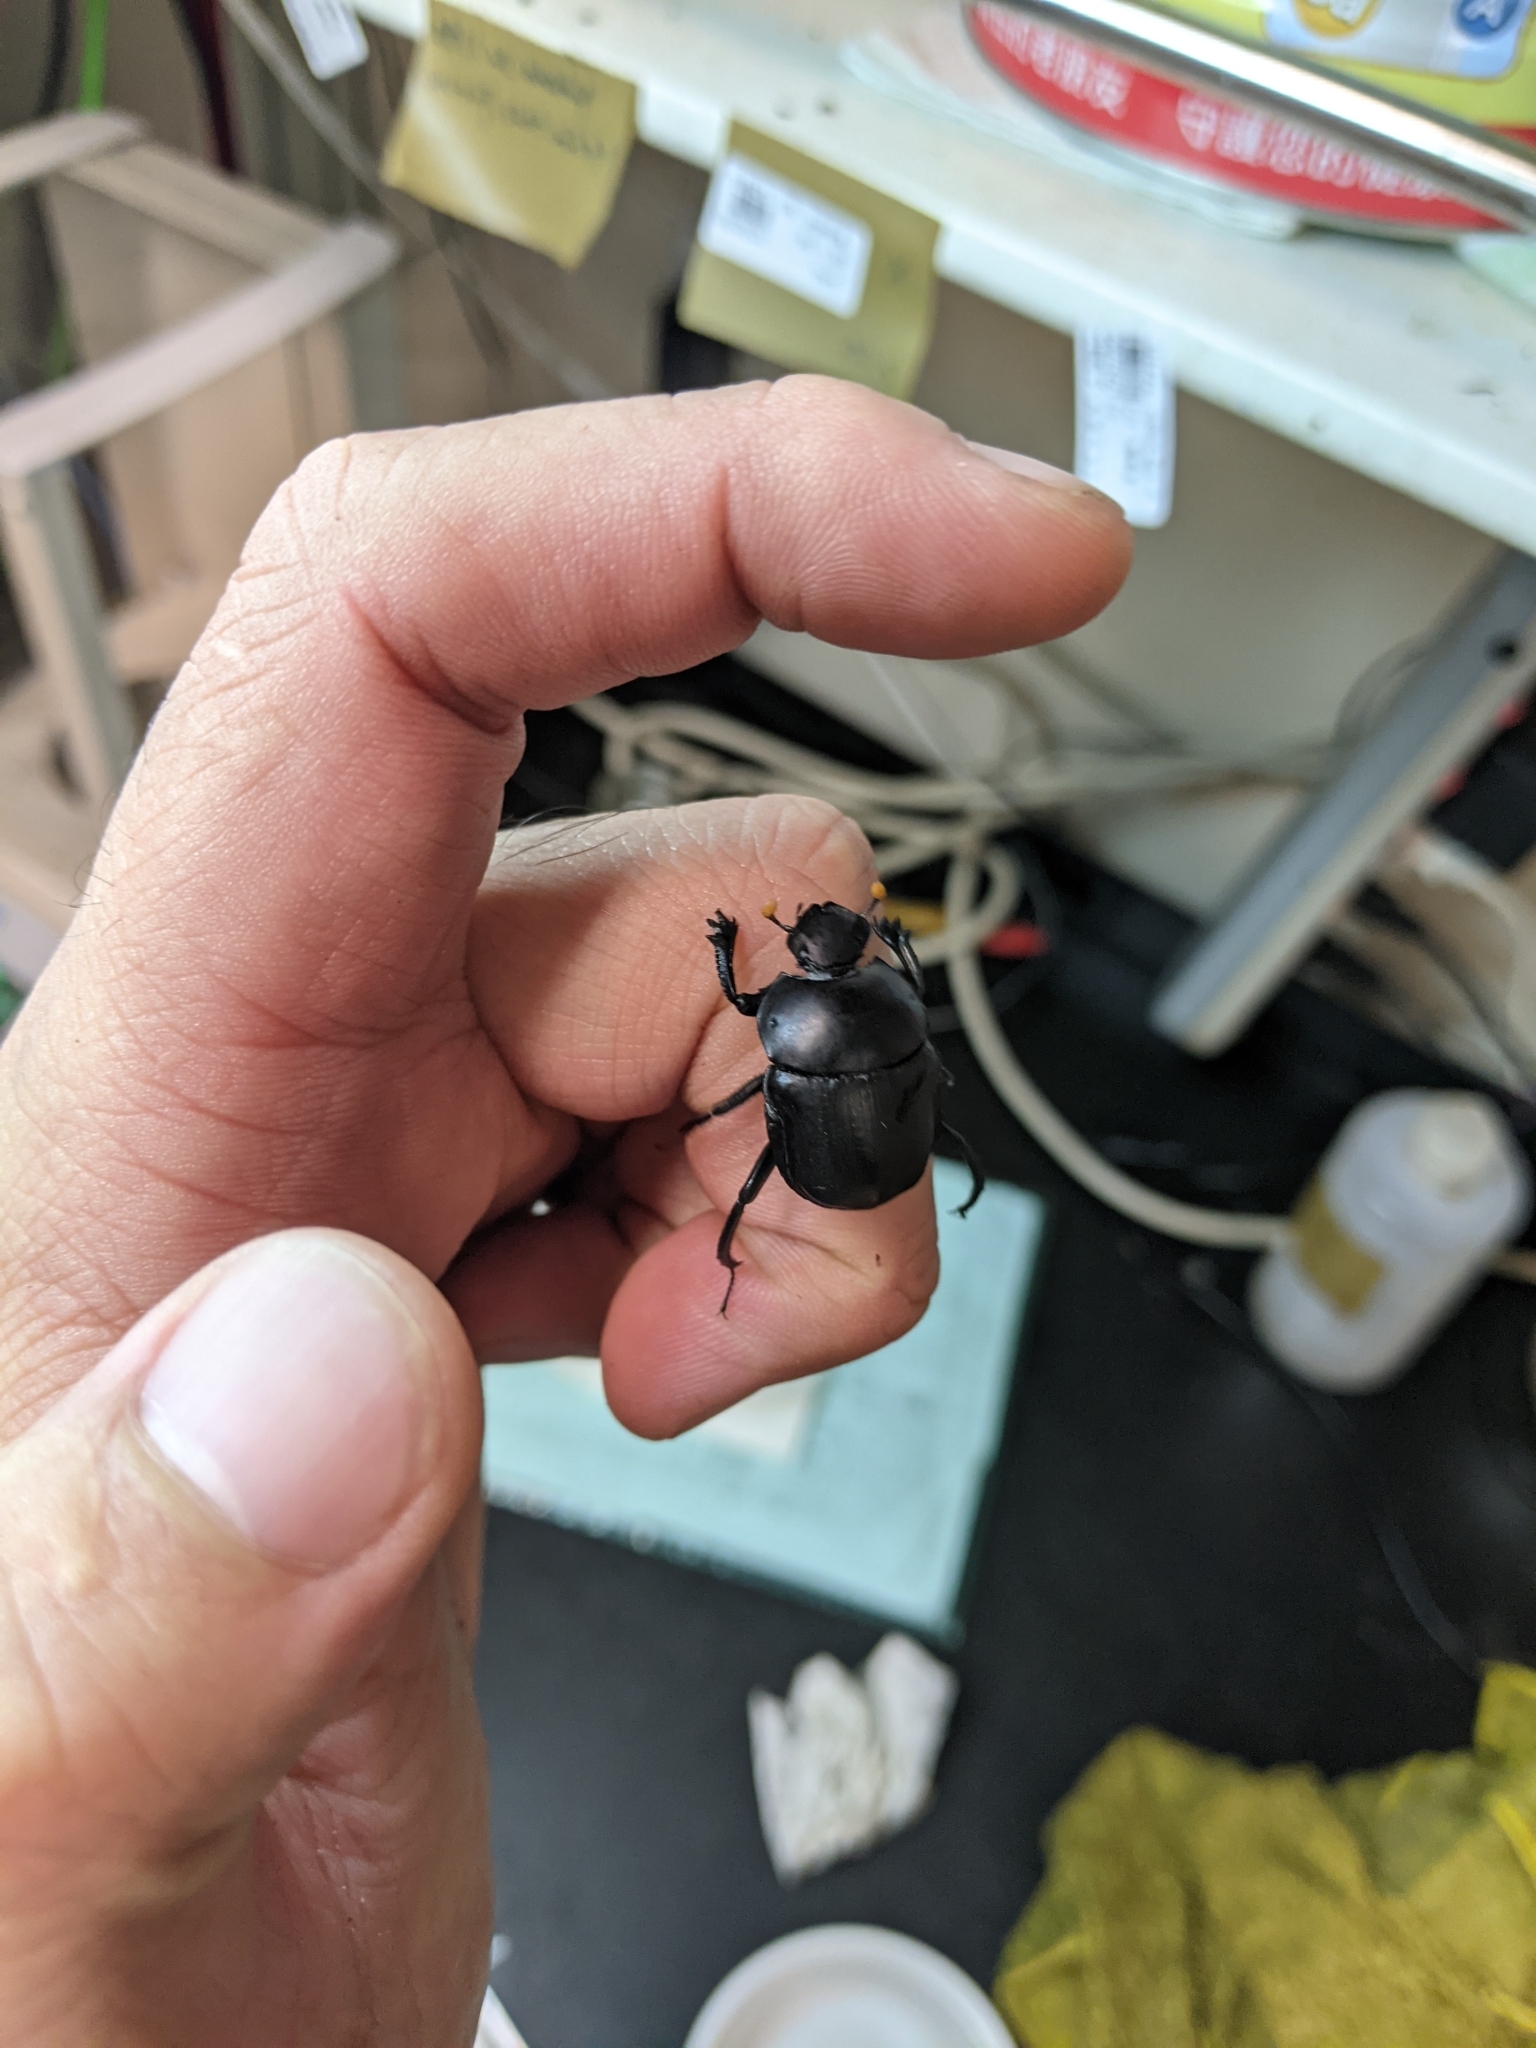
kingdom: Animalia
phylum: Arthropoda
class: Insecta
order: Coleoptera
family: Scarabaeidae
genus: Paragymnopleurus
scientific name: Paragymnopleurus ambiguus
